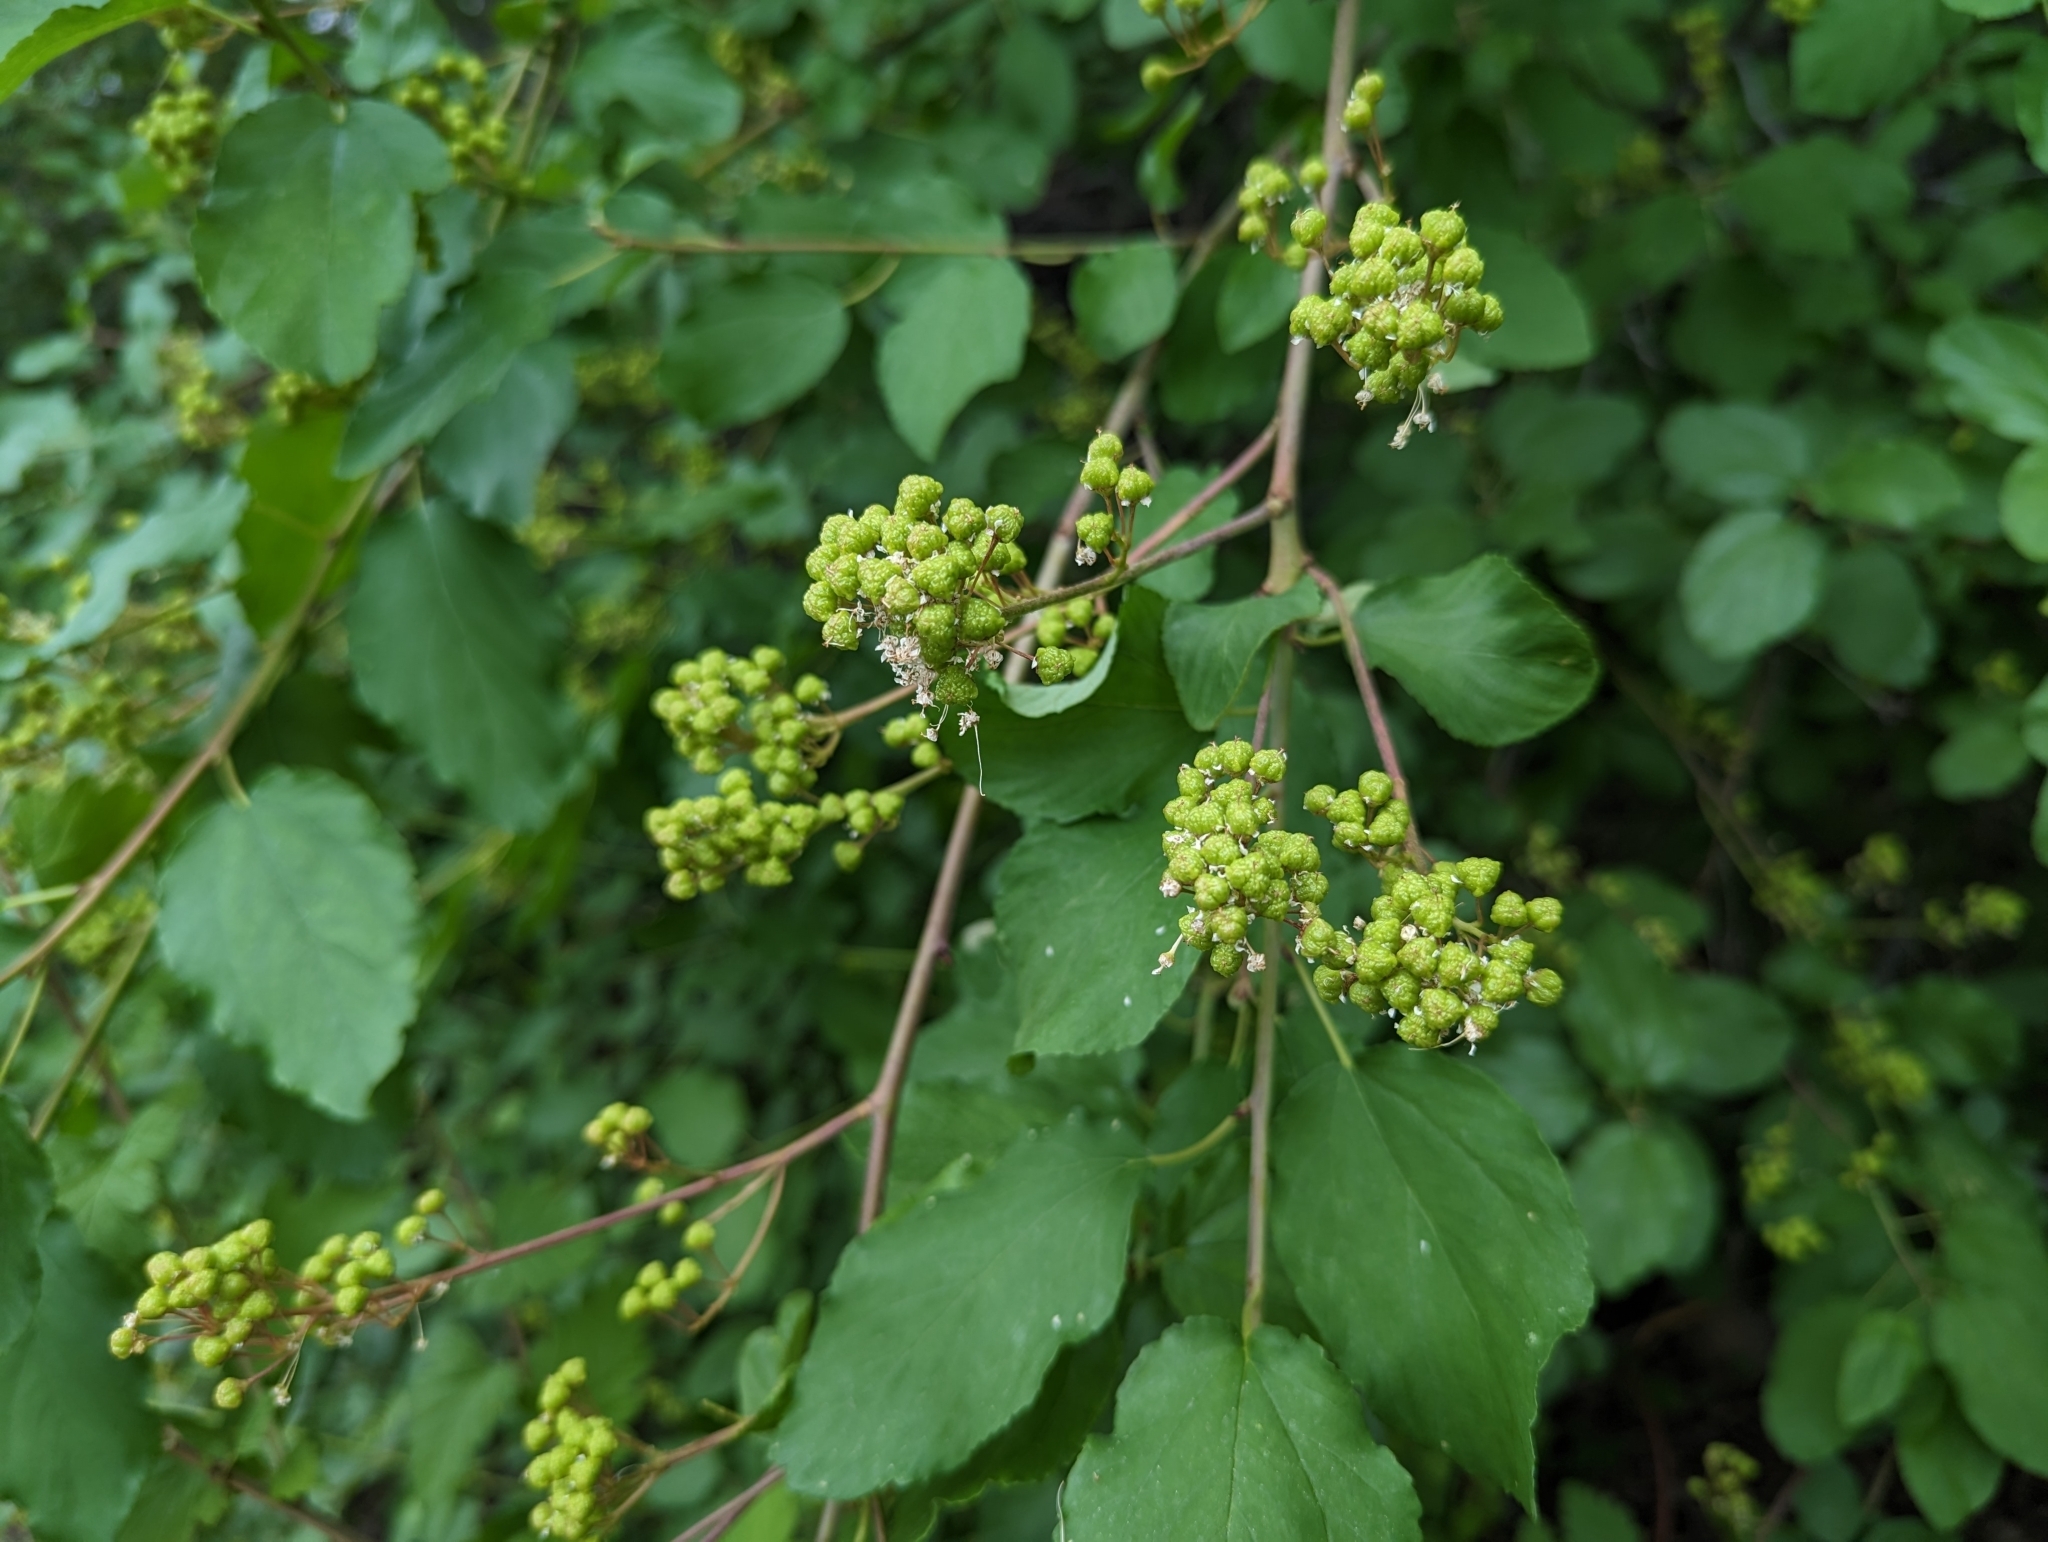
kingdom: Plantae
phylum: Tracheophyta
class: Magnoliopsida
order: Rosales
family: Rhamnaceae
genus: Ceanothus
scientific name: Ceanothus sanguineus
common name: Teatree
